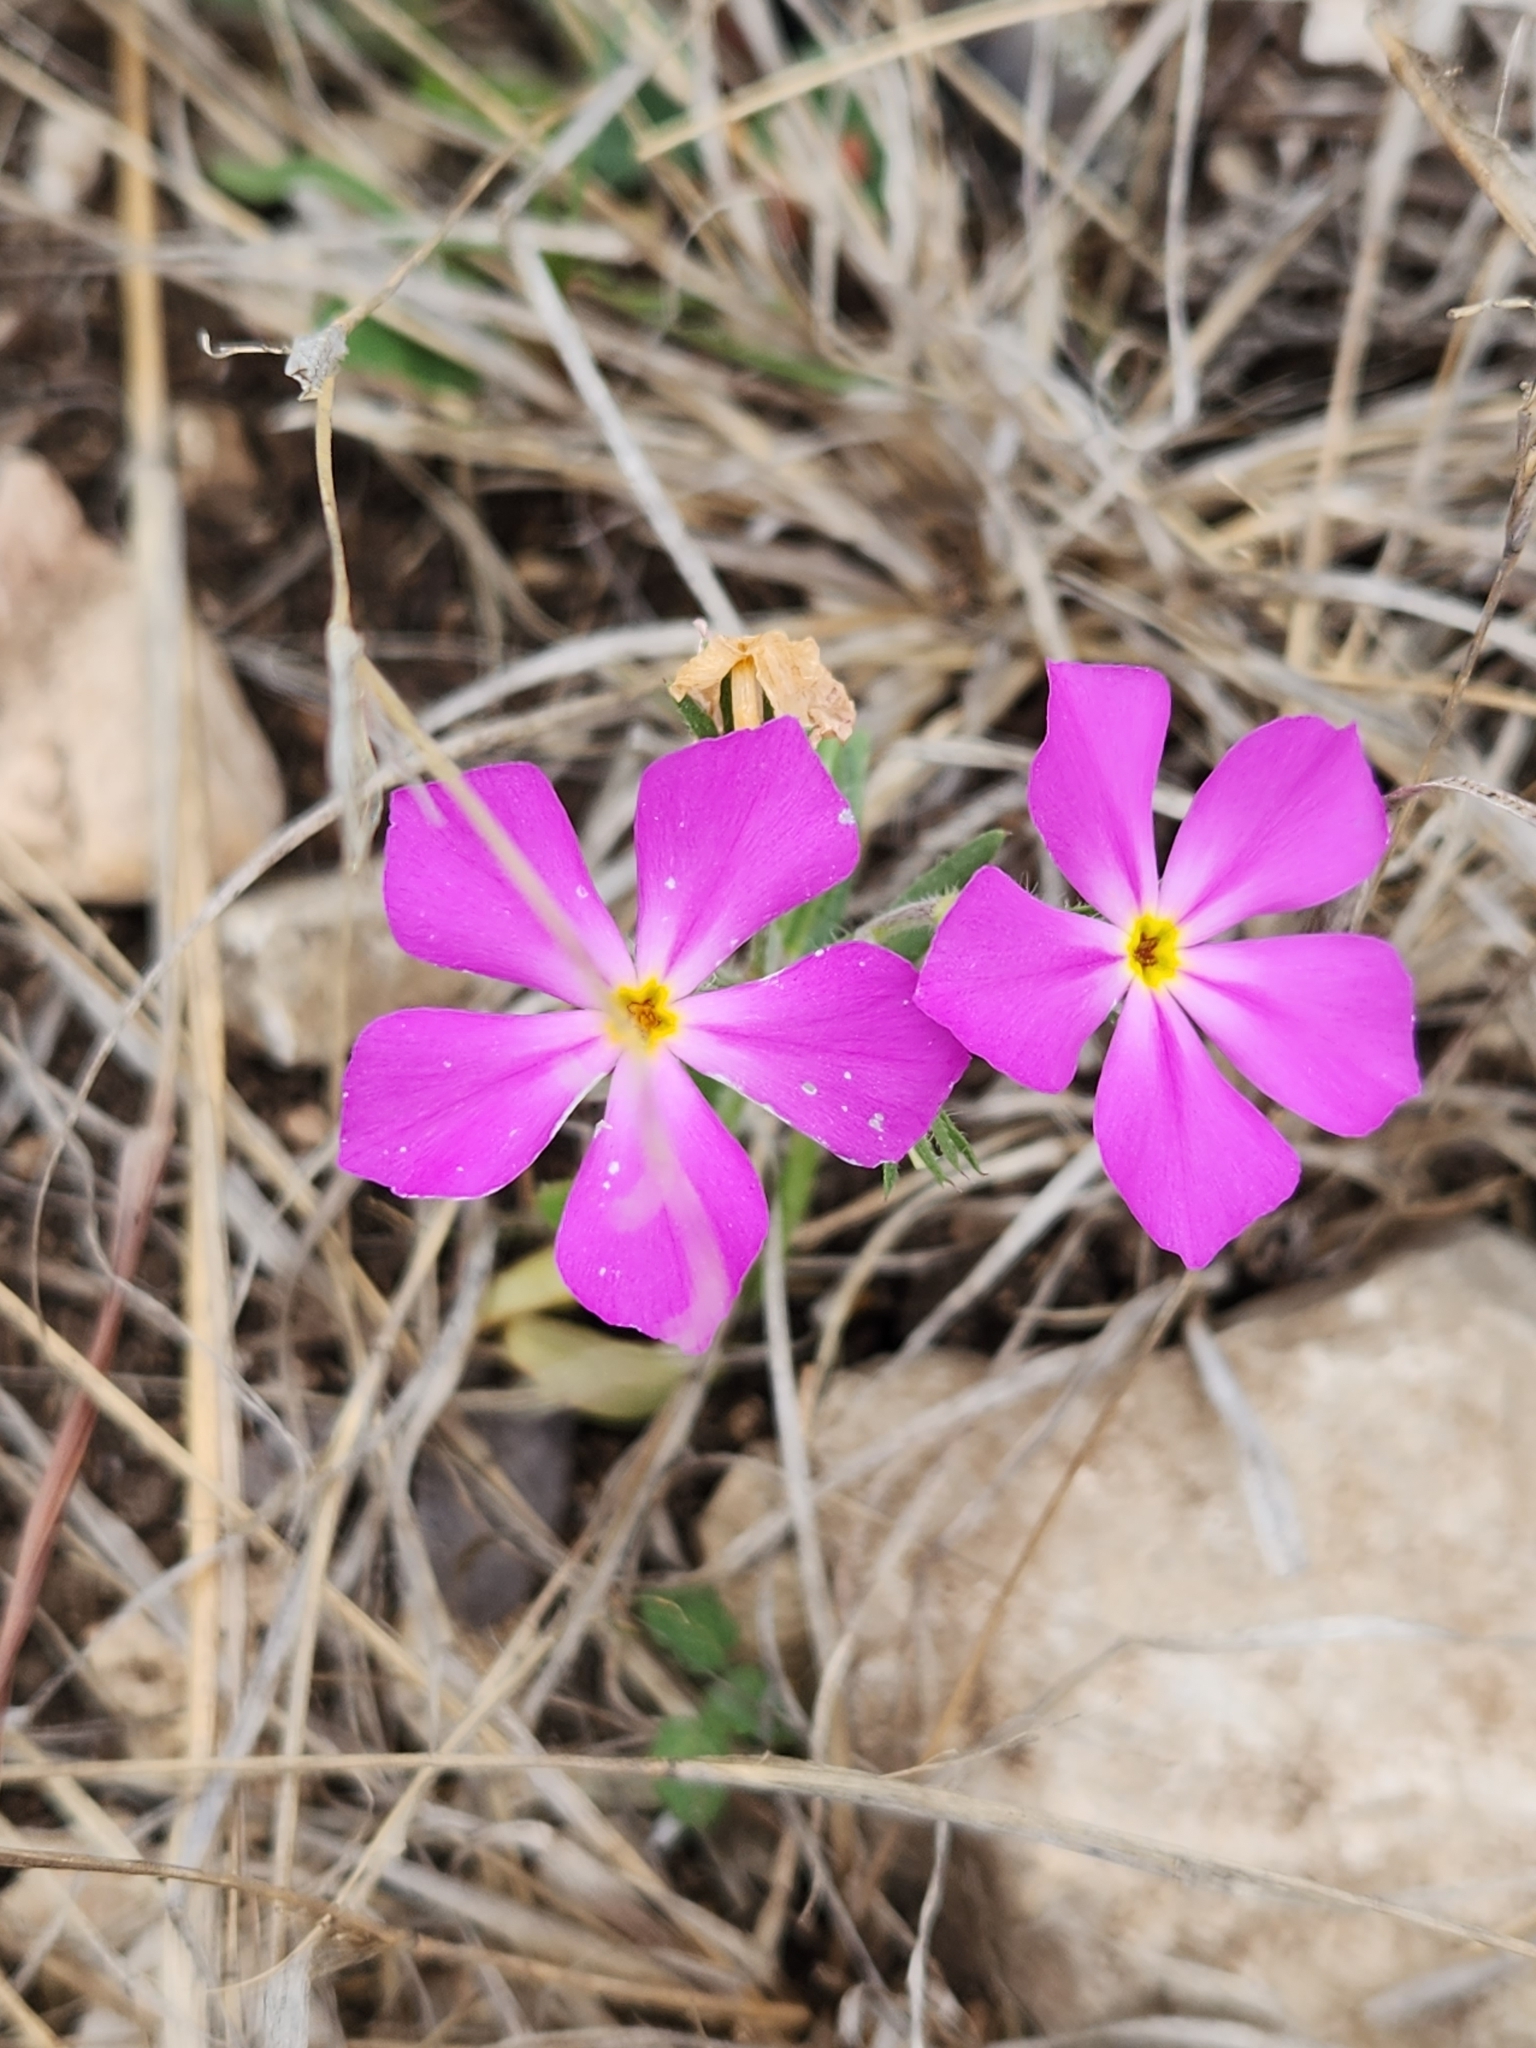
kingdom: Plantae
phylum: Tracheophyta
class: Magnoliopsida
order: Ericales
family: Polemoniaceae
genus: Phlox
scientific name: Phlox roemeriana
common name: Roemer's phlox
